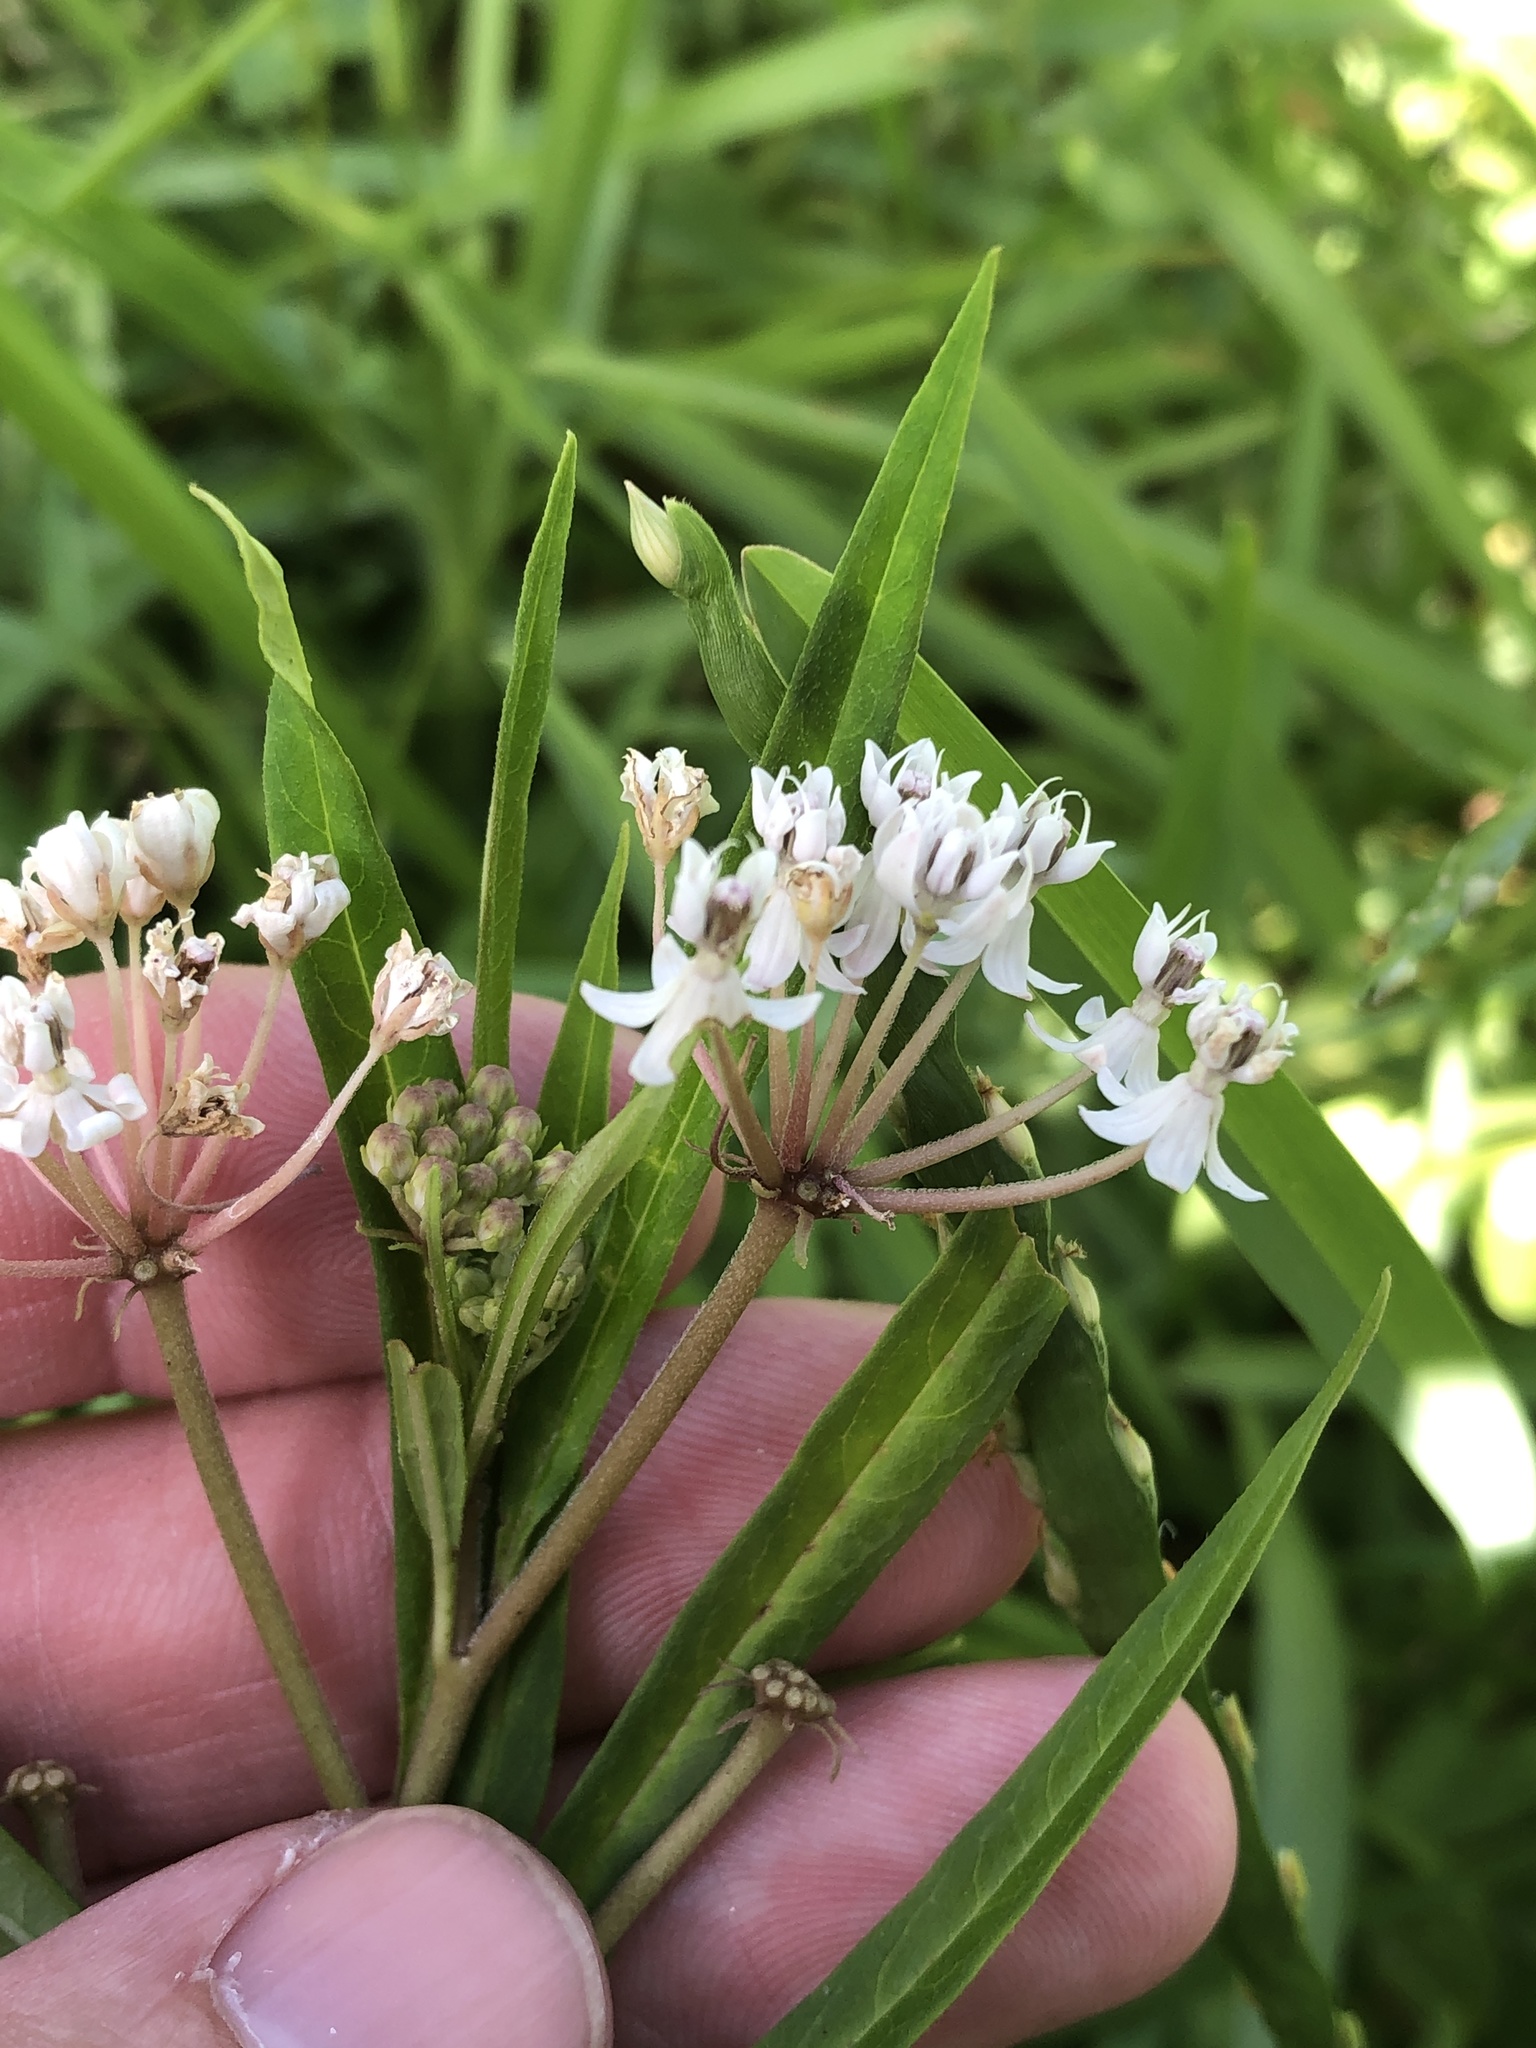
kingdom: Plantae
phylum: Tracheophyta
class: Magnoliopsida
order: Gentianales
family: Apocynaceae
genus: Asclepias
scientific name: Asclepias perennis
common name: Smooth-seed milkweed
